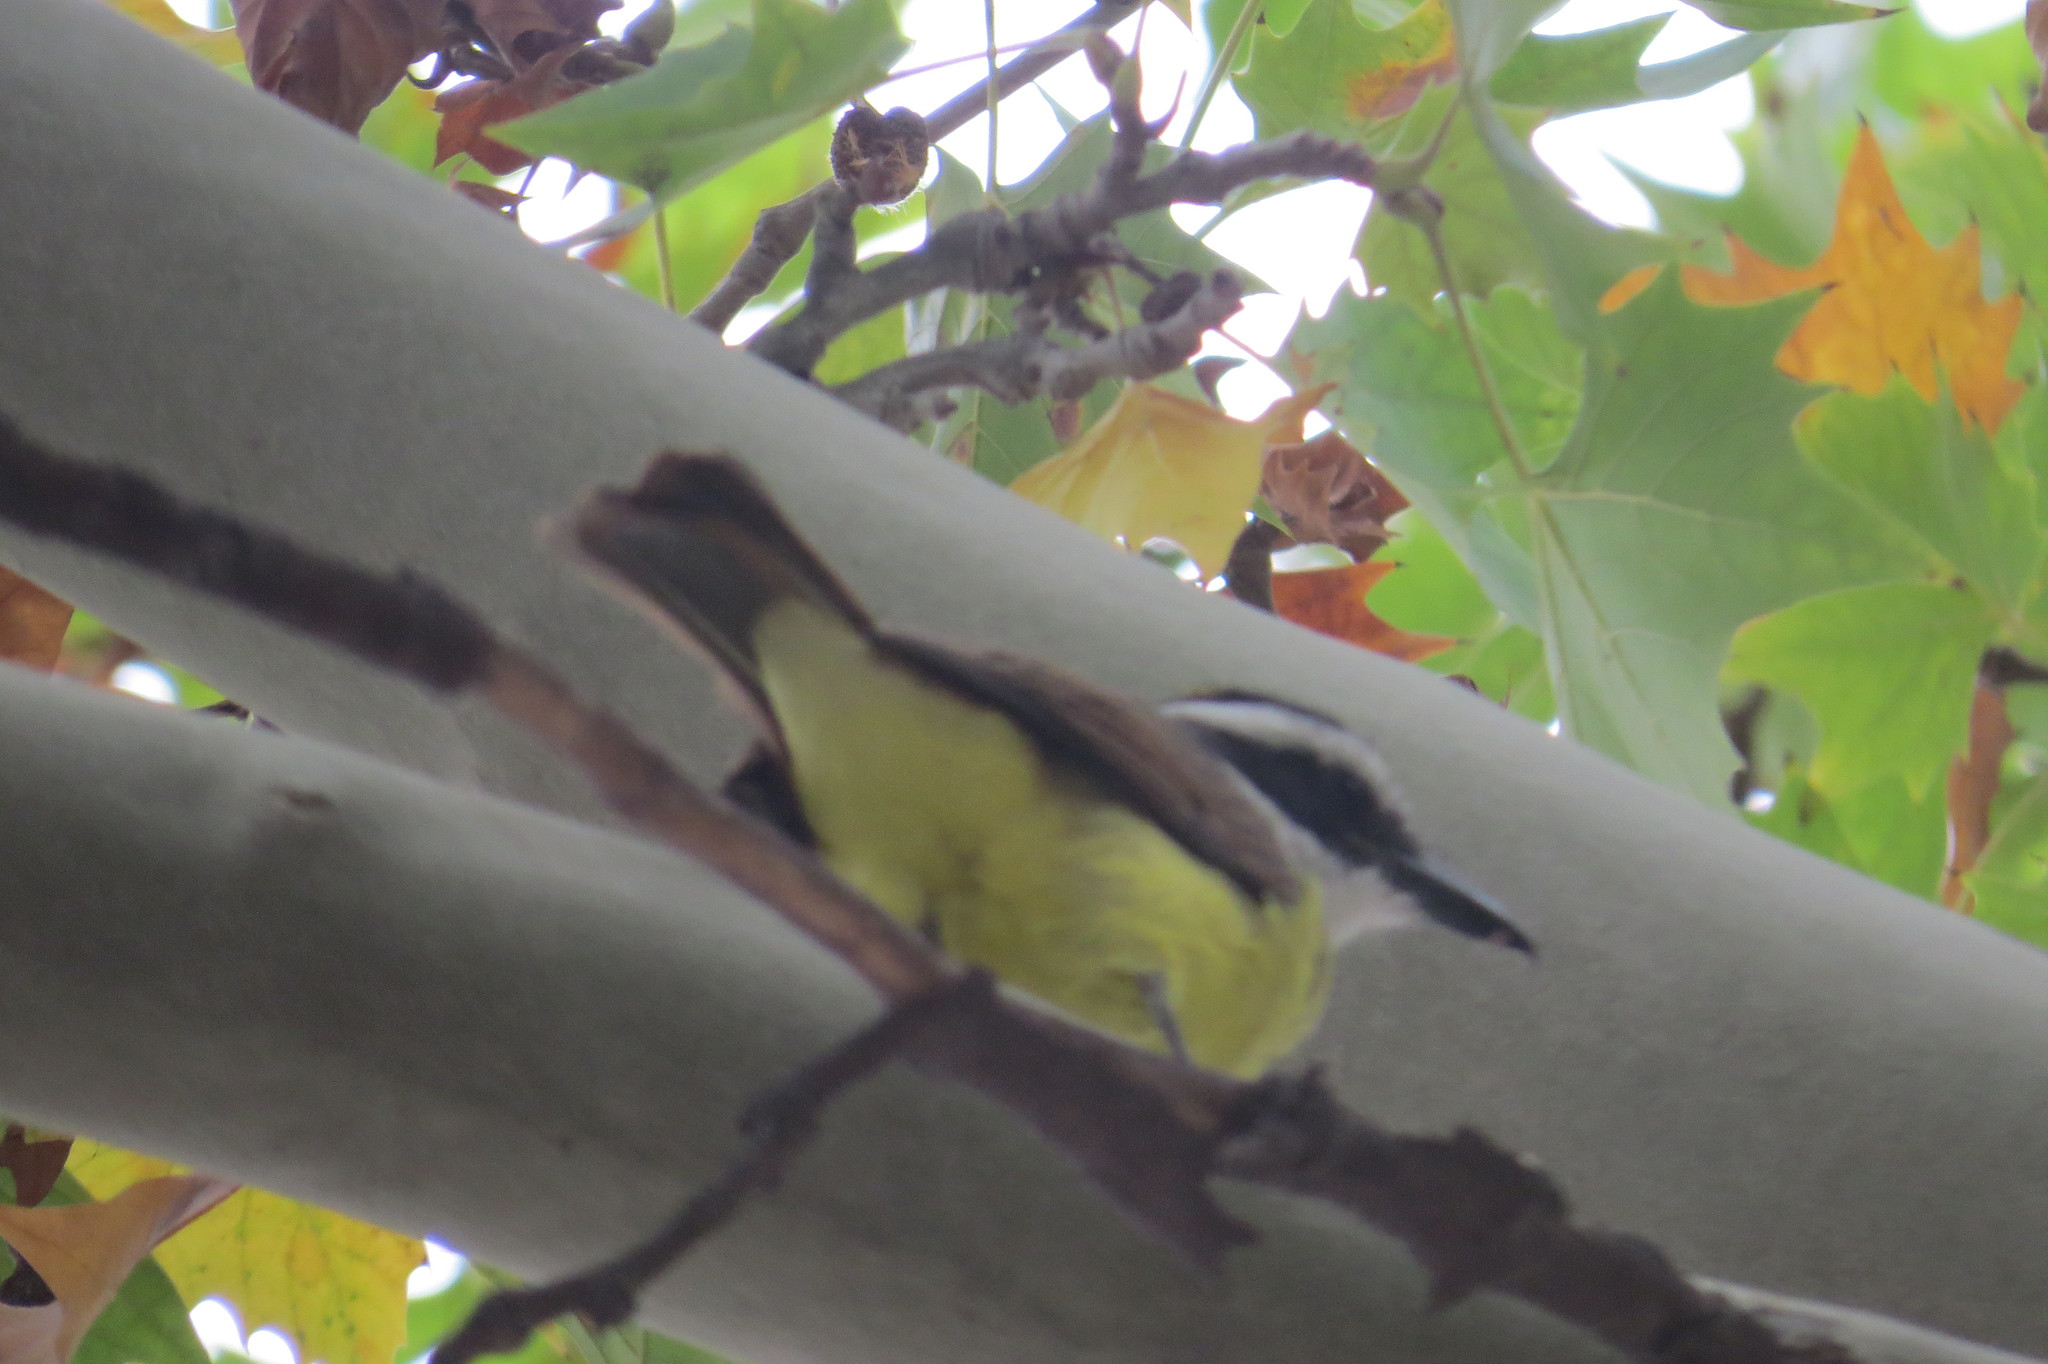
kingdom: Animalia
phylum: Chordata
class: Aves
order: Passeriformes
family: Tyrannidae
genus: Pitangus
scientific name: Pitangus sulphuratus
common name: Great kiskadee
